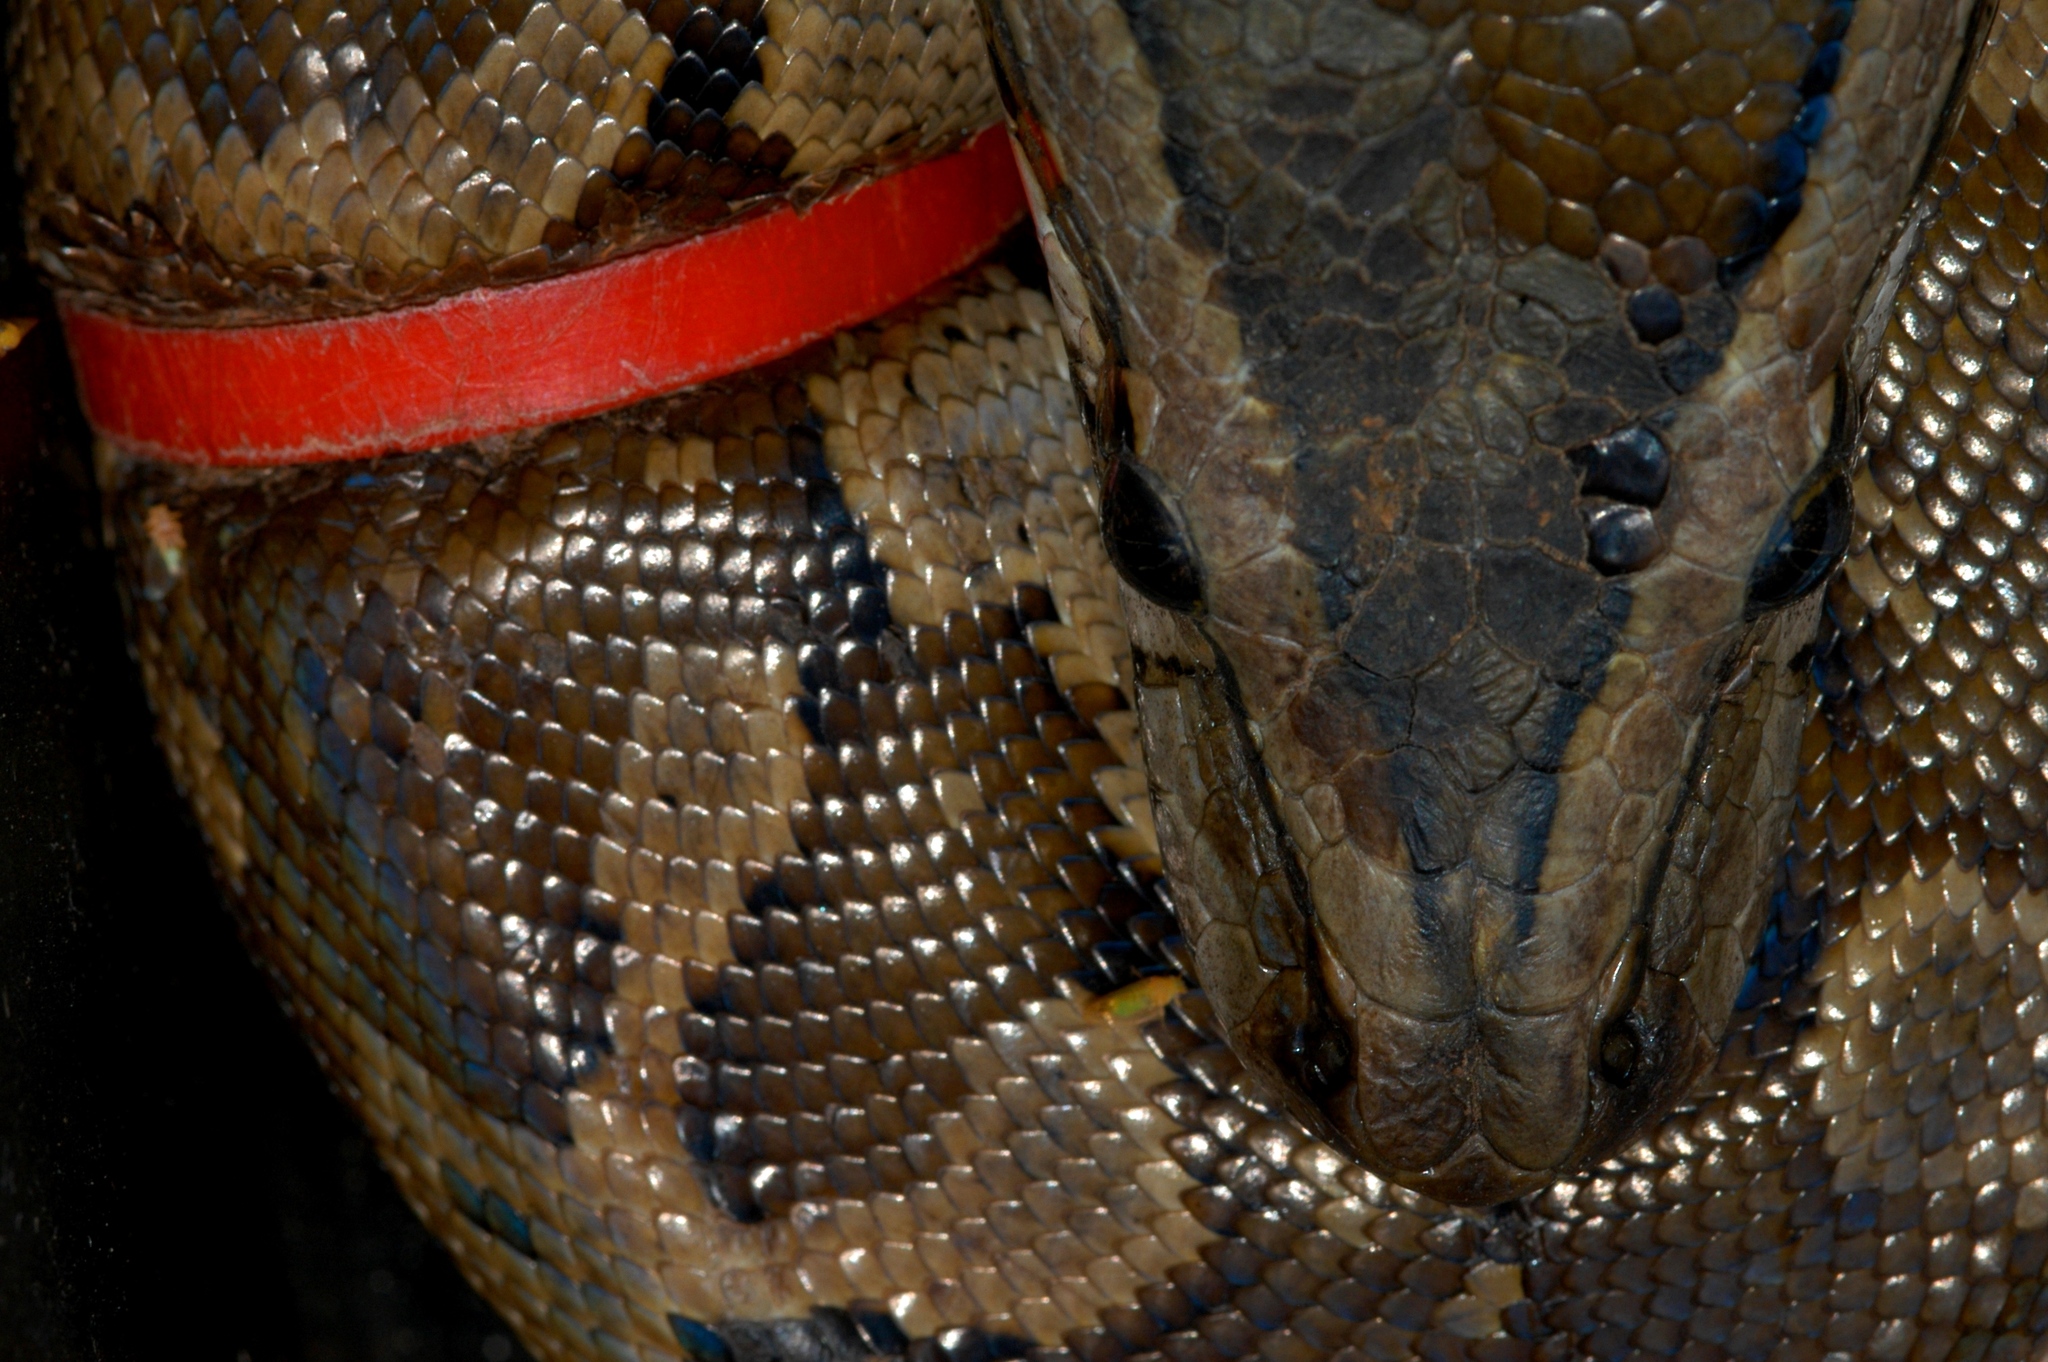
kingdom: Animalia
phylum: Chordata
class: Squamata
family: Pythonidae
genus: Python
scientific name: Python natalensis
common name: Southern african rock python
